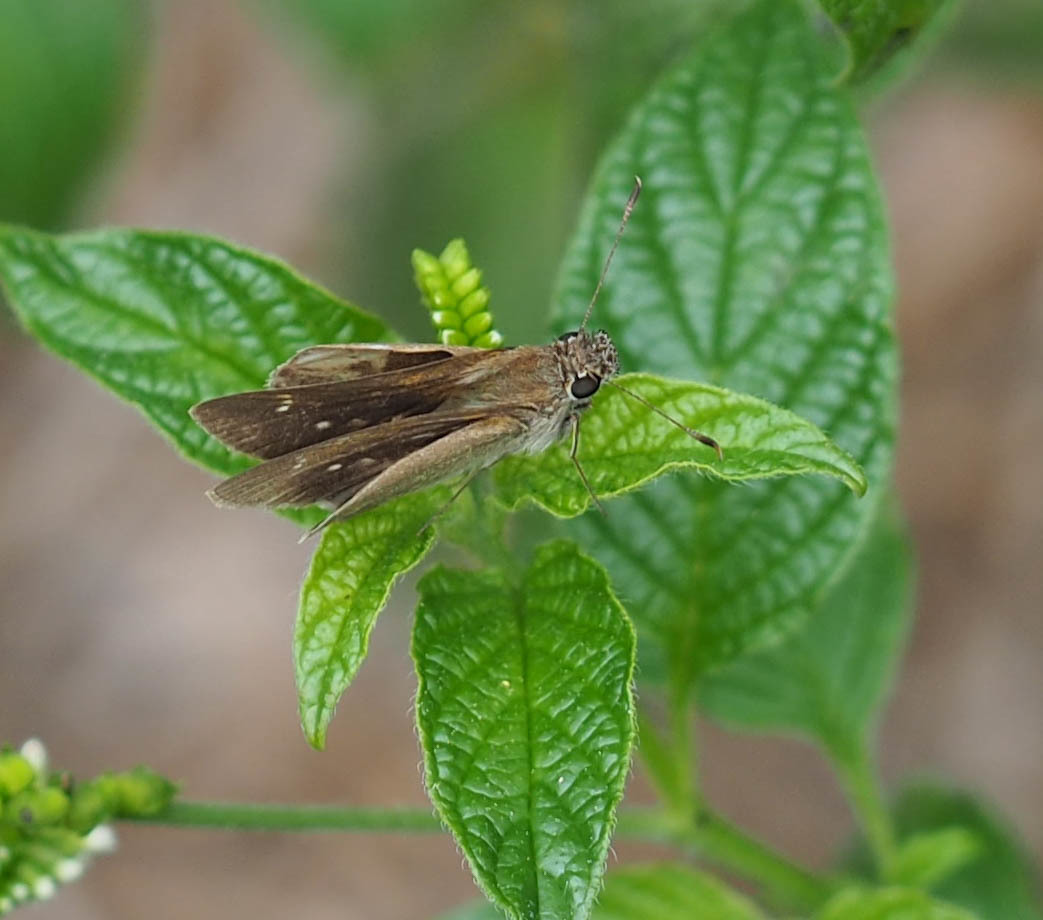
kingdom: Animalia
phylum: Arthropoda
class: Insecta
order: Lepidoptera
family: Hesperiidae
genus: Cymaenes
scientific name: Cymaenes tripunctus
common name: Dingy dotted skipper
